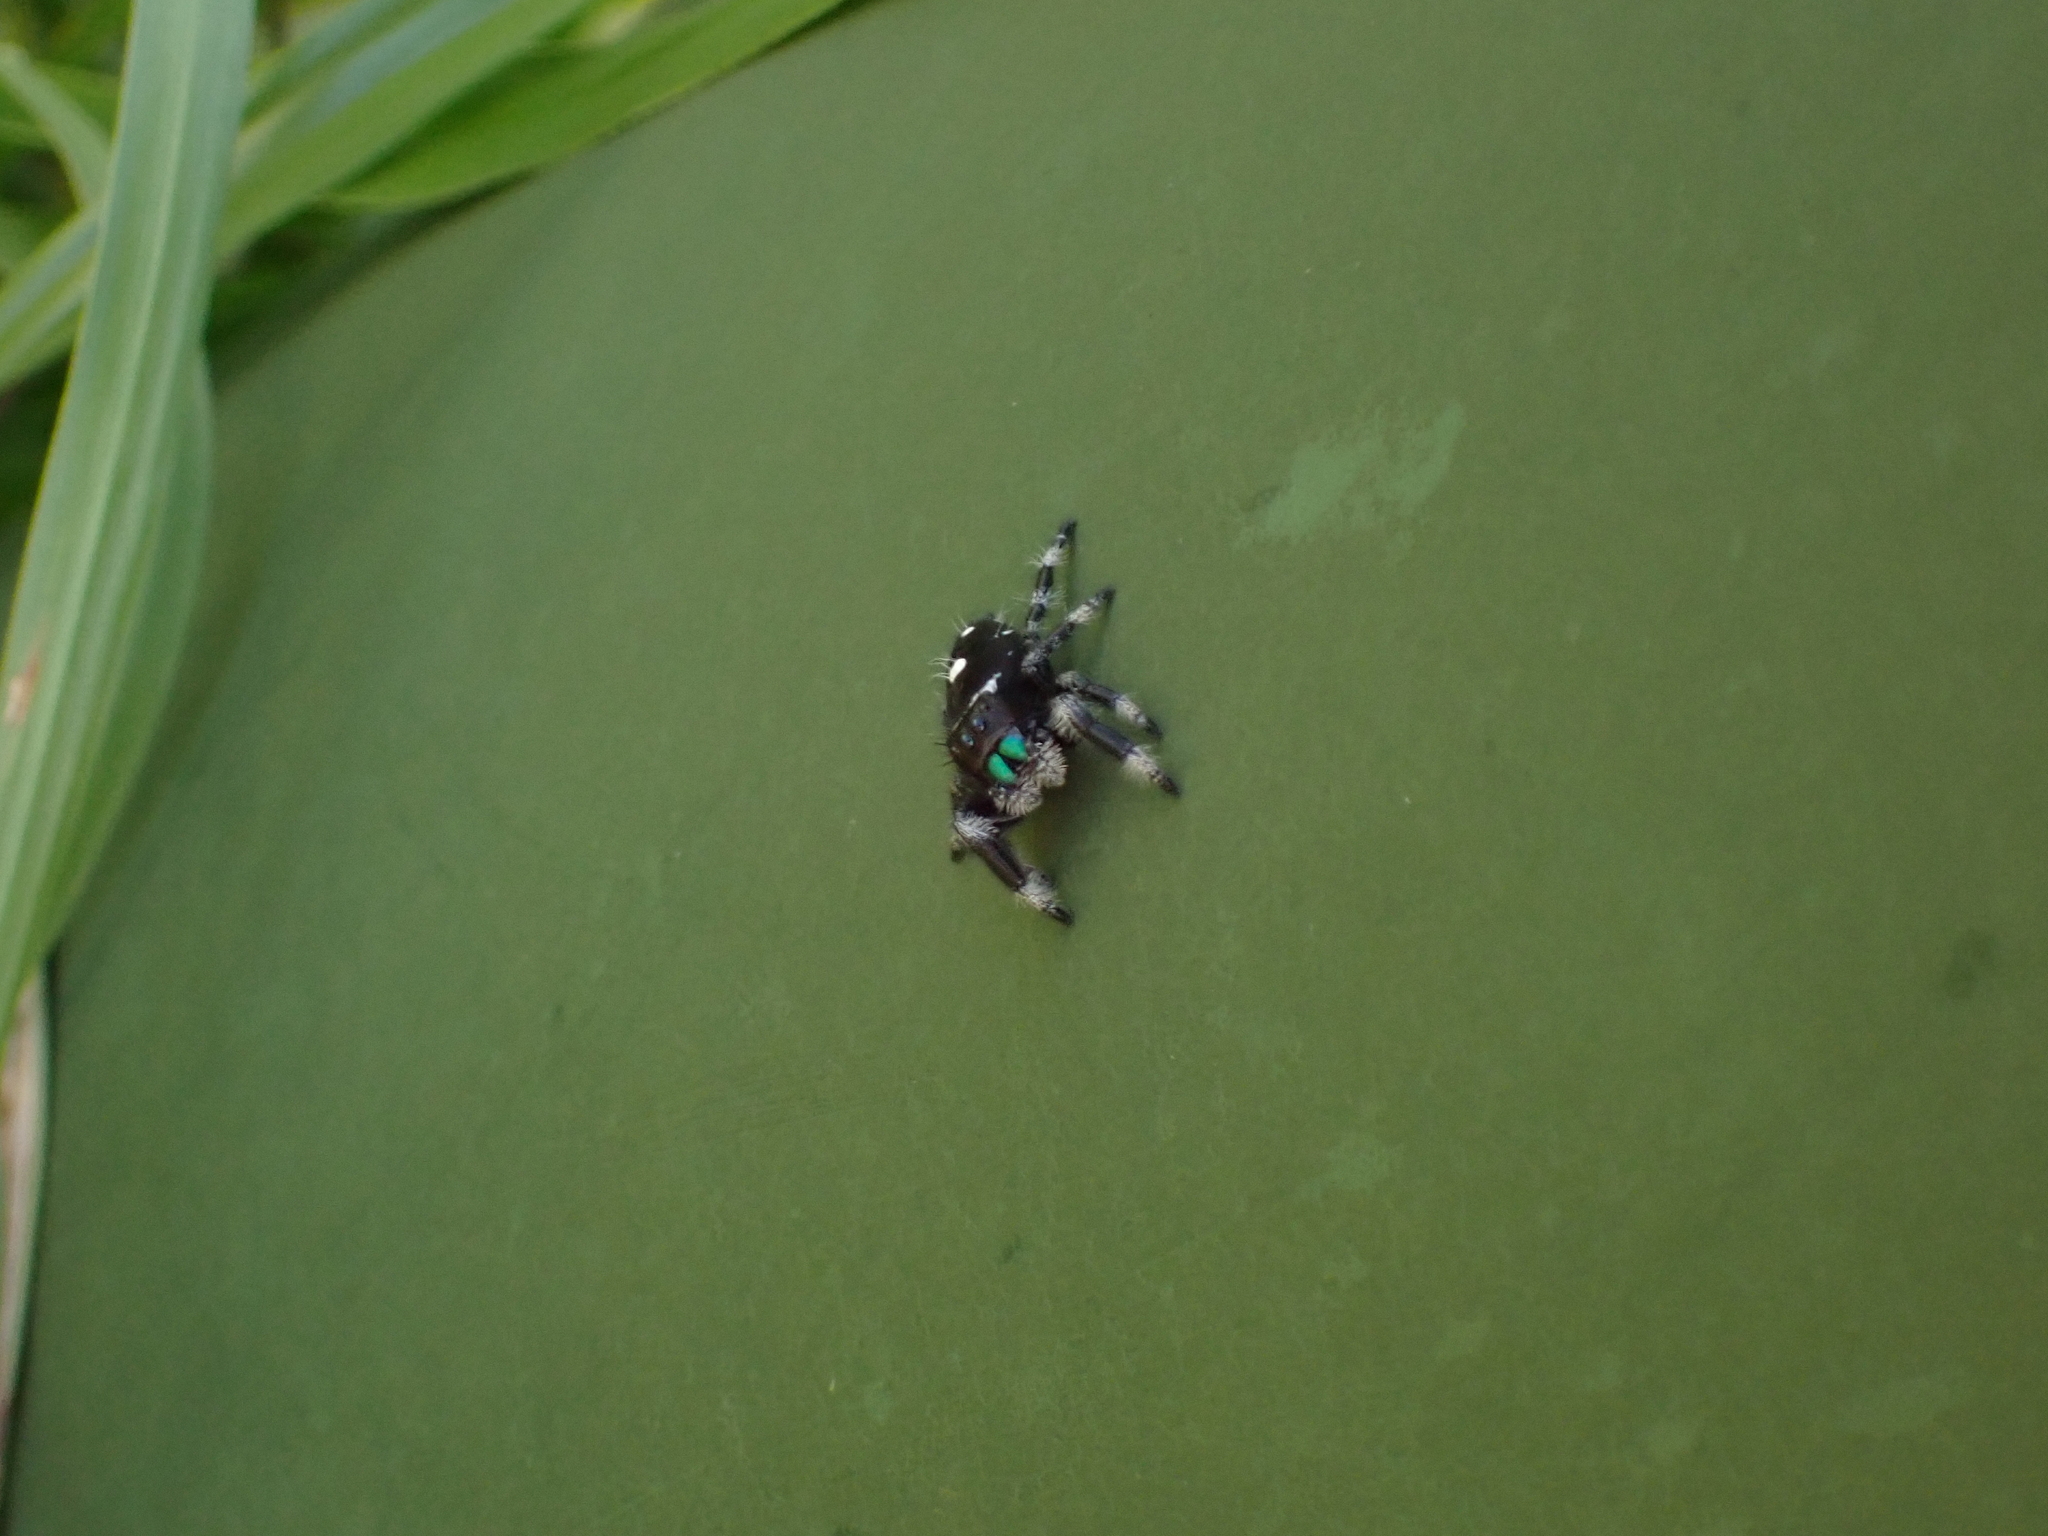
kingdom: Animalia
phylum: Arthropoda
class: Arachnida
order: Araneae
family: Salticidae
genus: Phidippus
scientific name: Phidippus regius
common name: Regal jumper
